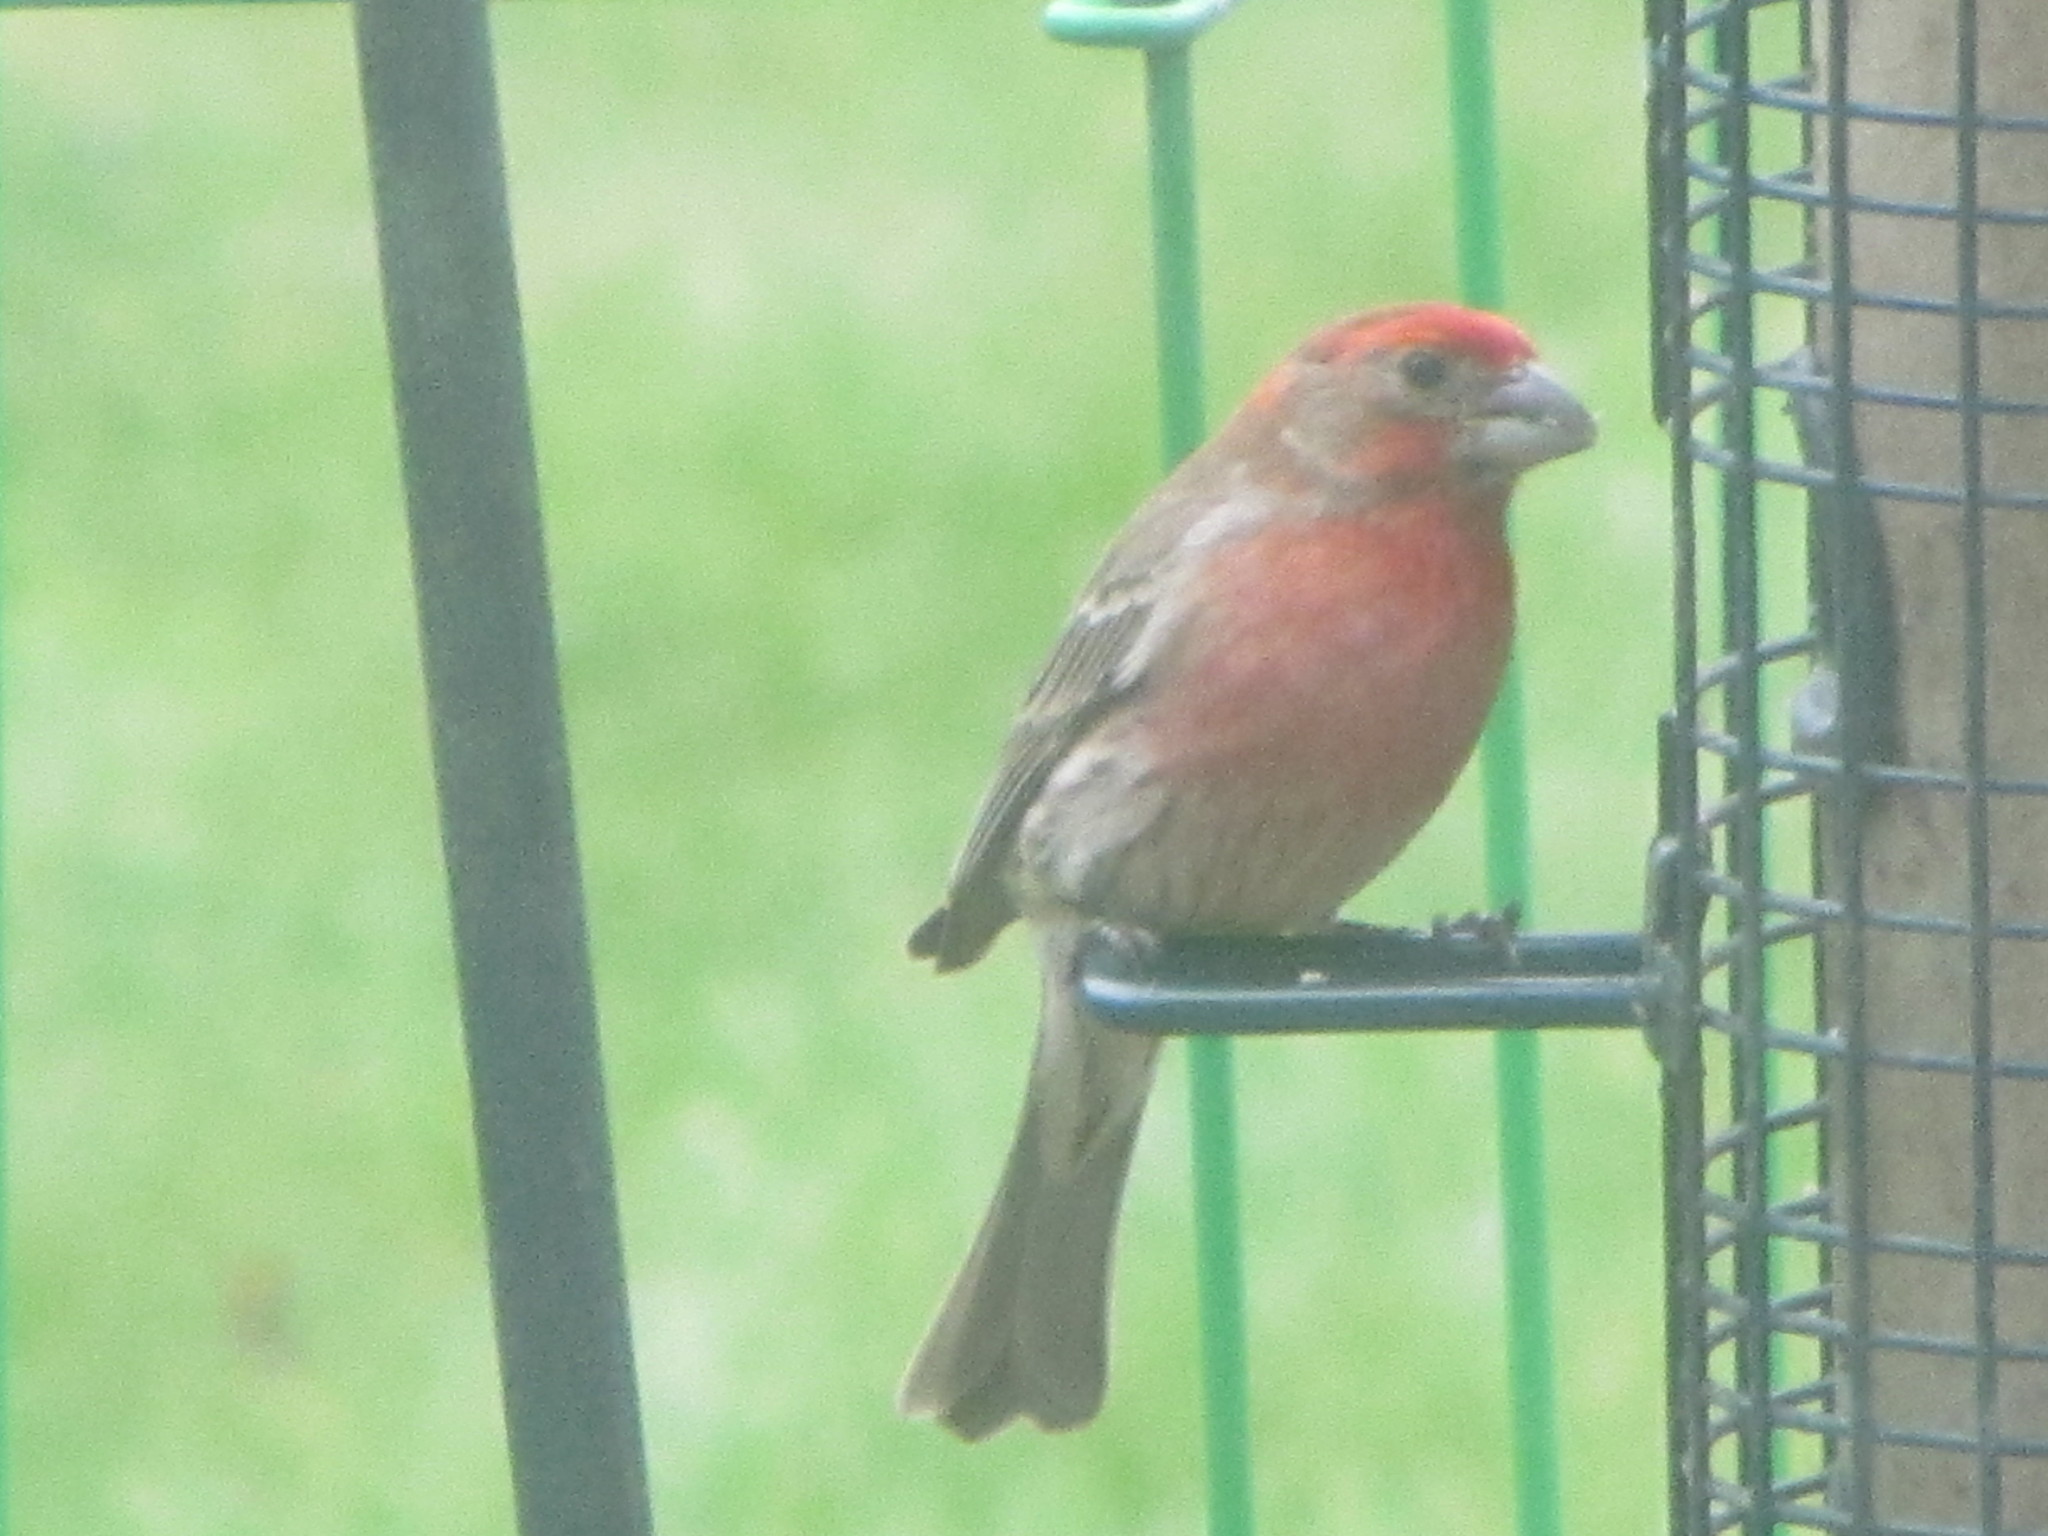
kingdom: Animalia
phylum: Chordata
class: Aves
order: Passeriformes
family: Fringillidae
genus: Haemorhous
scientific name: Haemorhous mexicanus
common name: House finch
